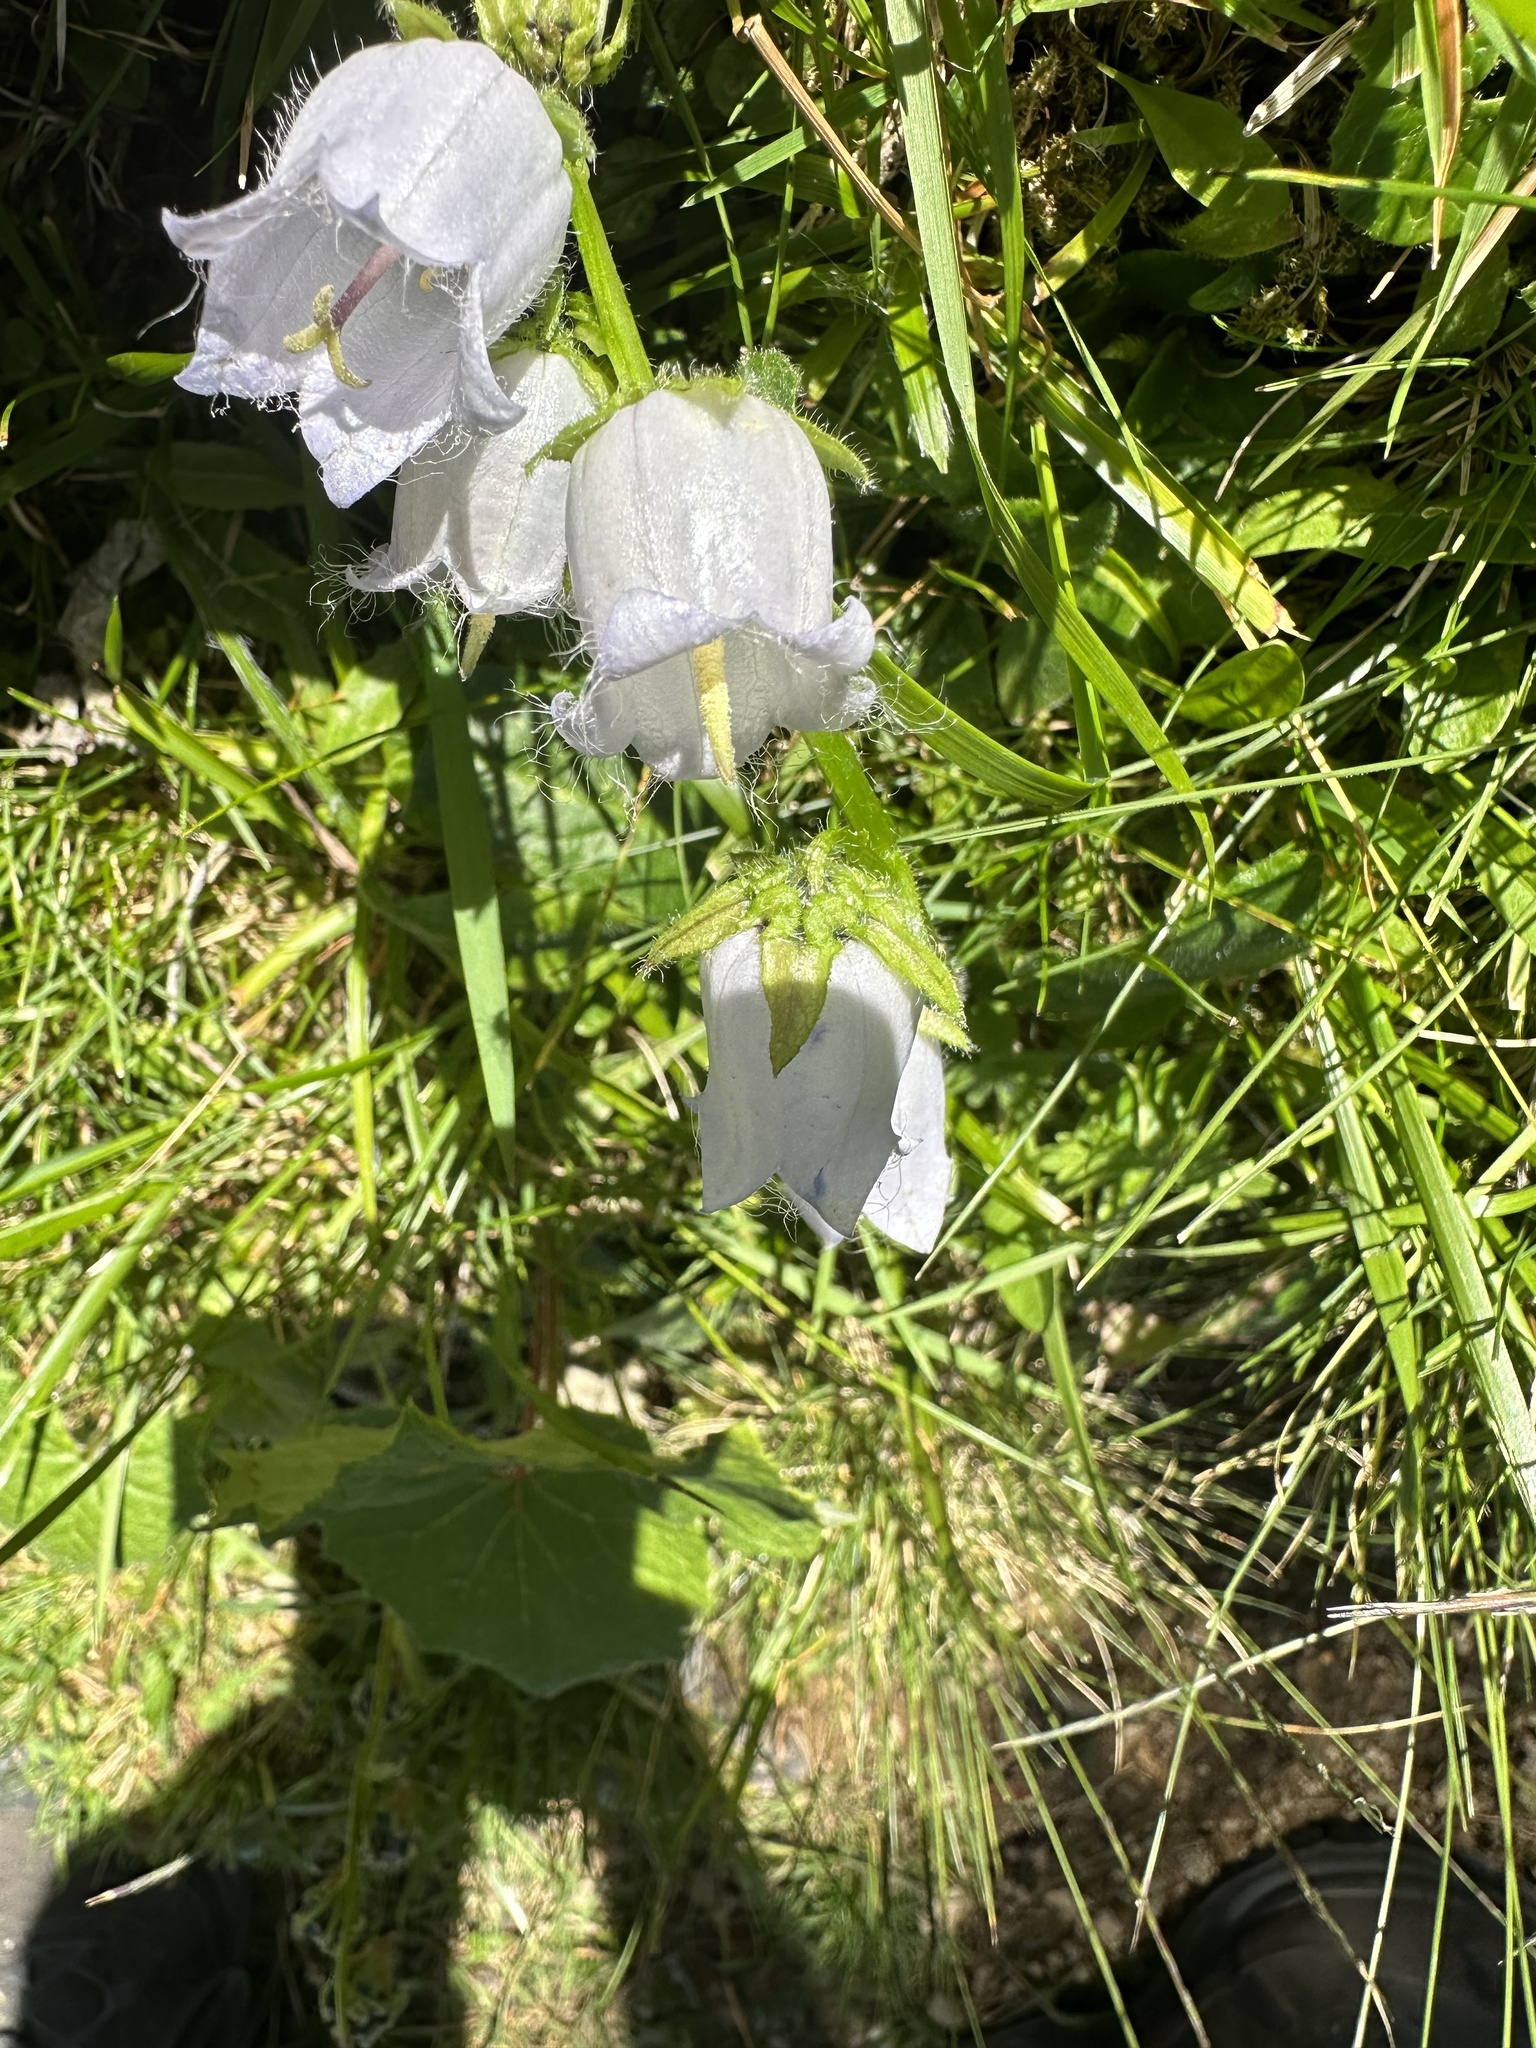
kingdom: Plantae
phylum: Tracheophyta
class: Magnoliopsida
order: Asterales
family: Campanulaceae
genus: Campanula
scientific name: Campanula barbata
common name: Bearded bellflower
